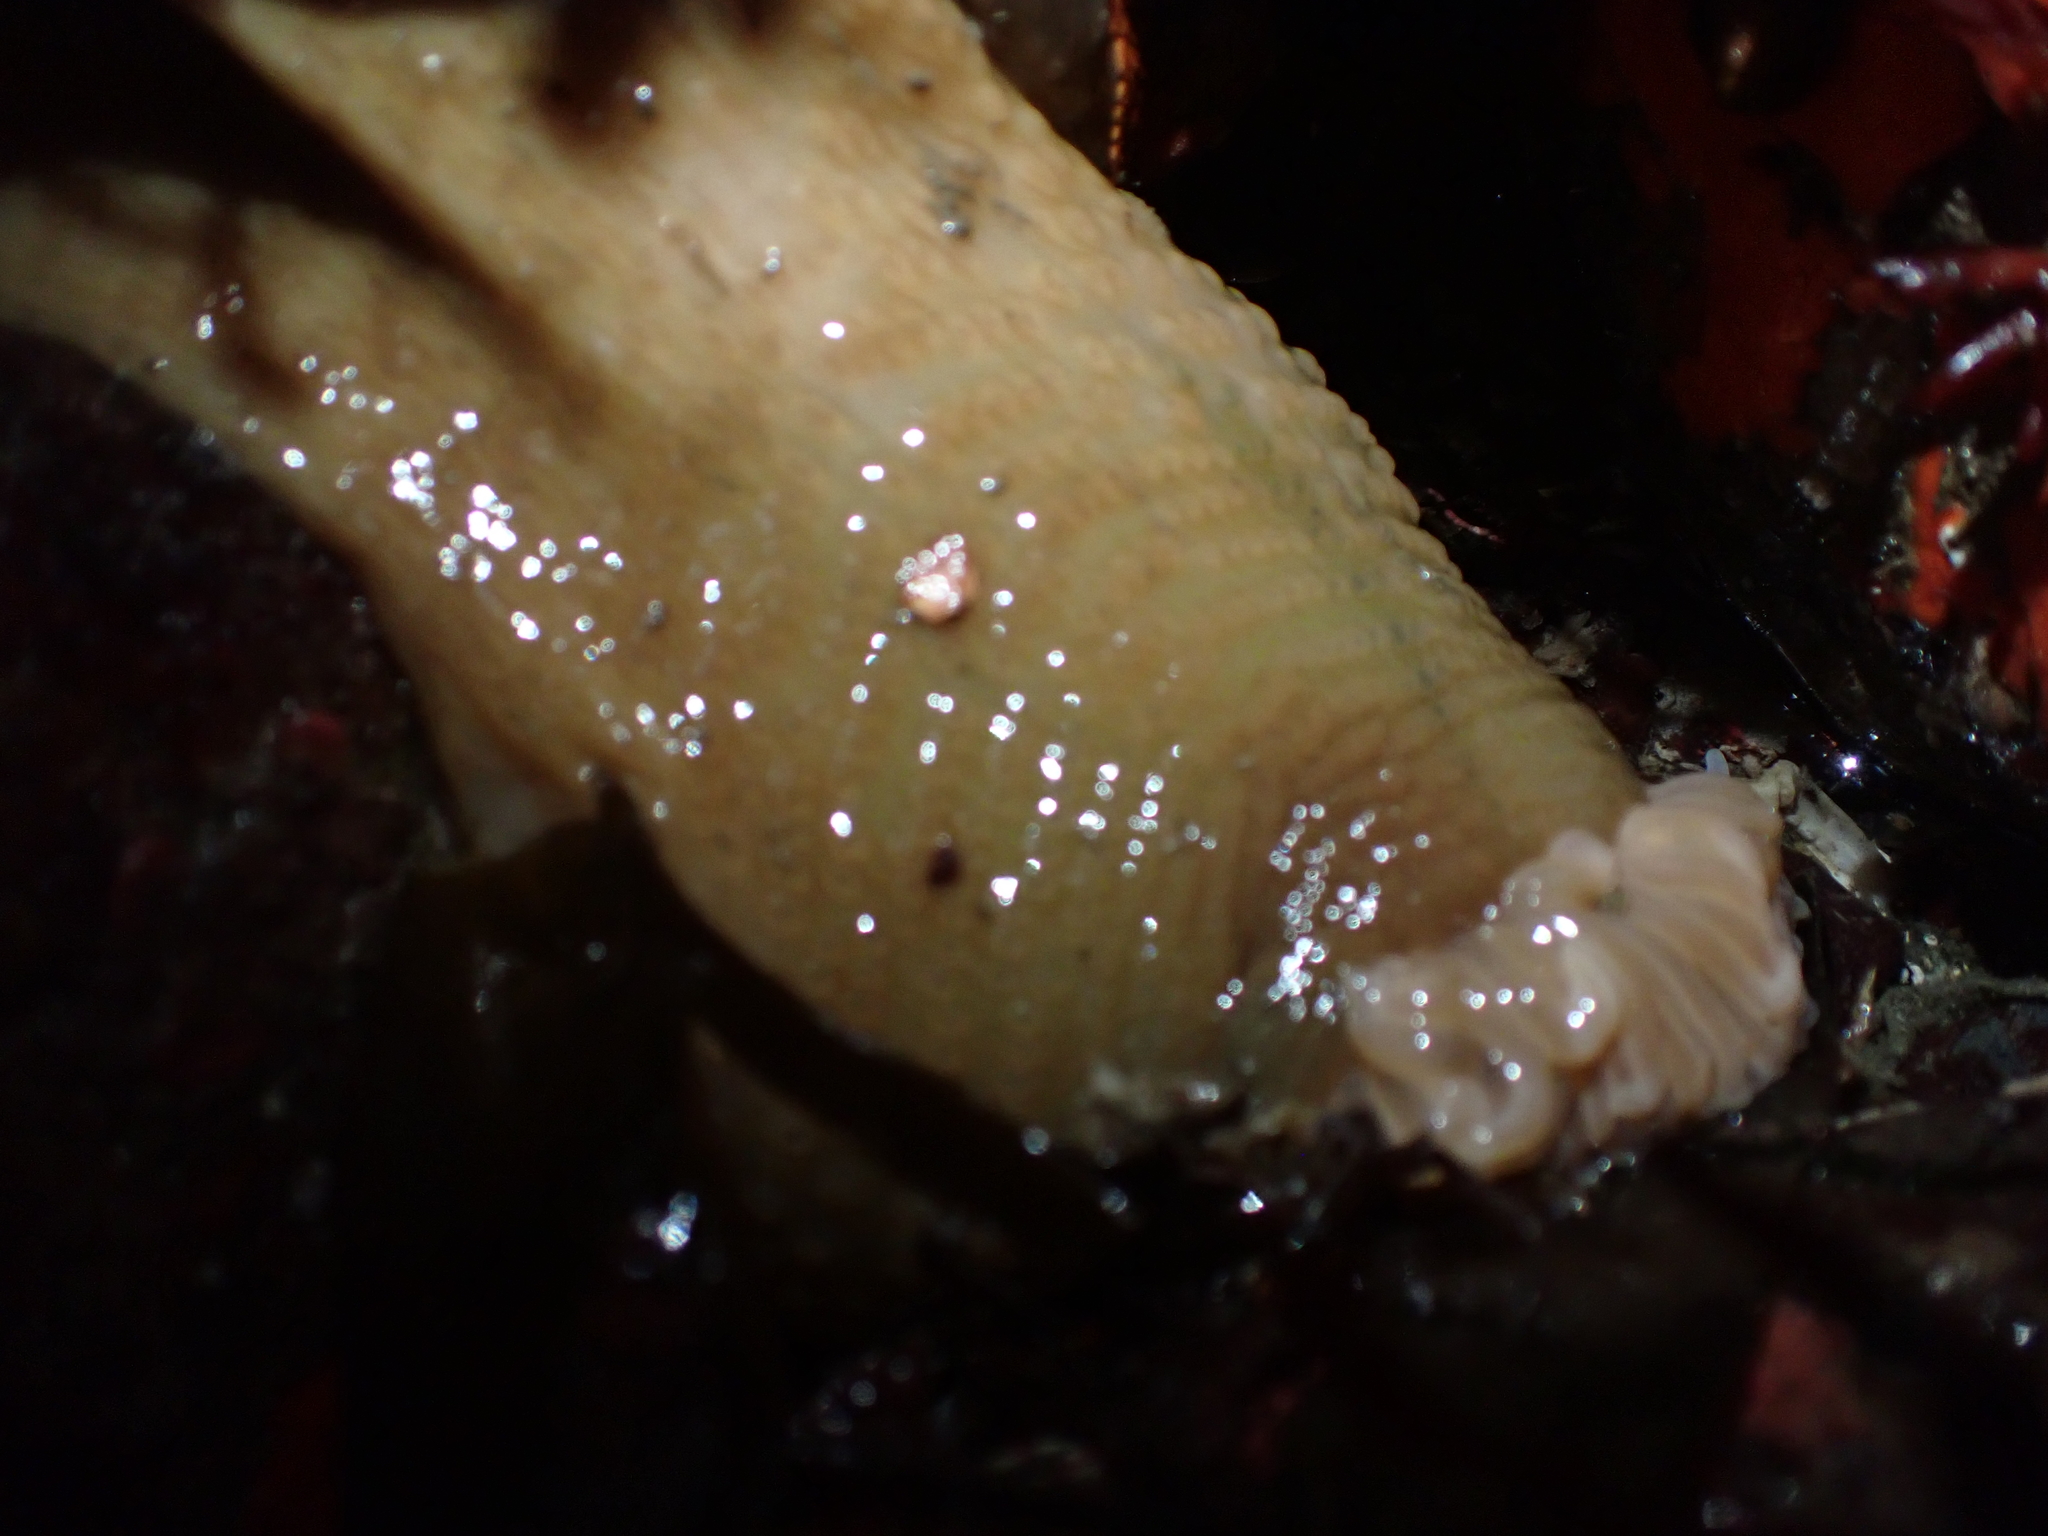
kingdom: Animalia
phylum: Cnidaria
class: Anthozoa
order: Actiniaria
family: Actiniidae
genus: Urticina
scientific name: Urticina grebelnyi
